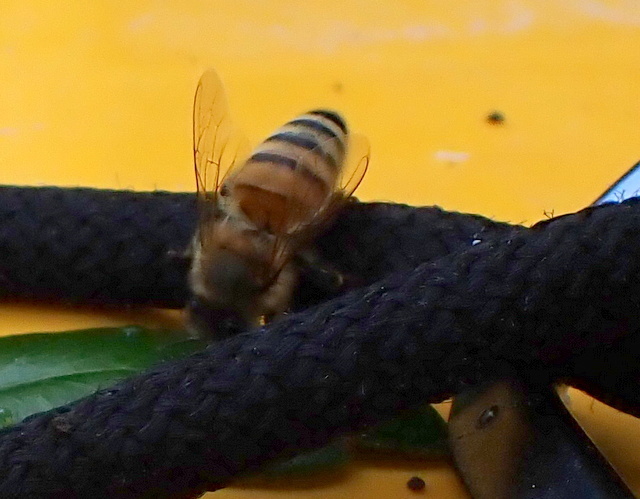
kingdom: Animalia
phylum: Arthropoda
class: Insecta
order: Hymenoptera
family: Apidae
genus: Apis
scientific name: Apis mellifera
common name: Honey bee
